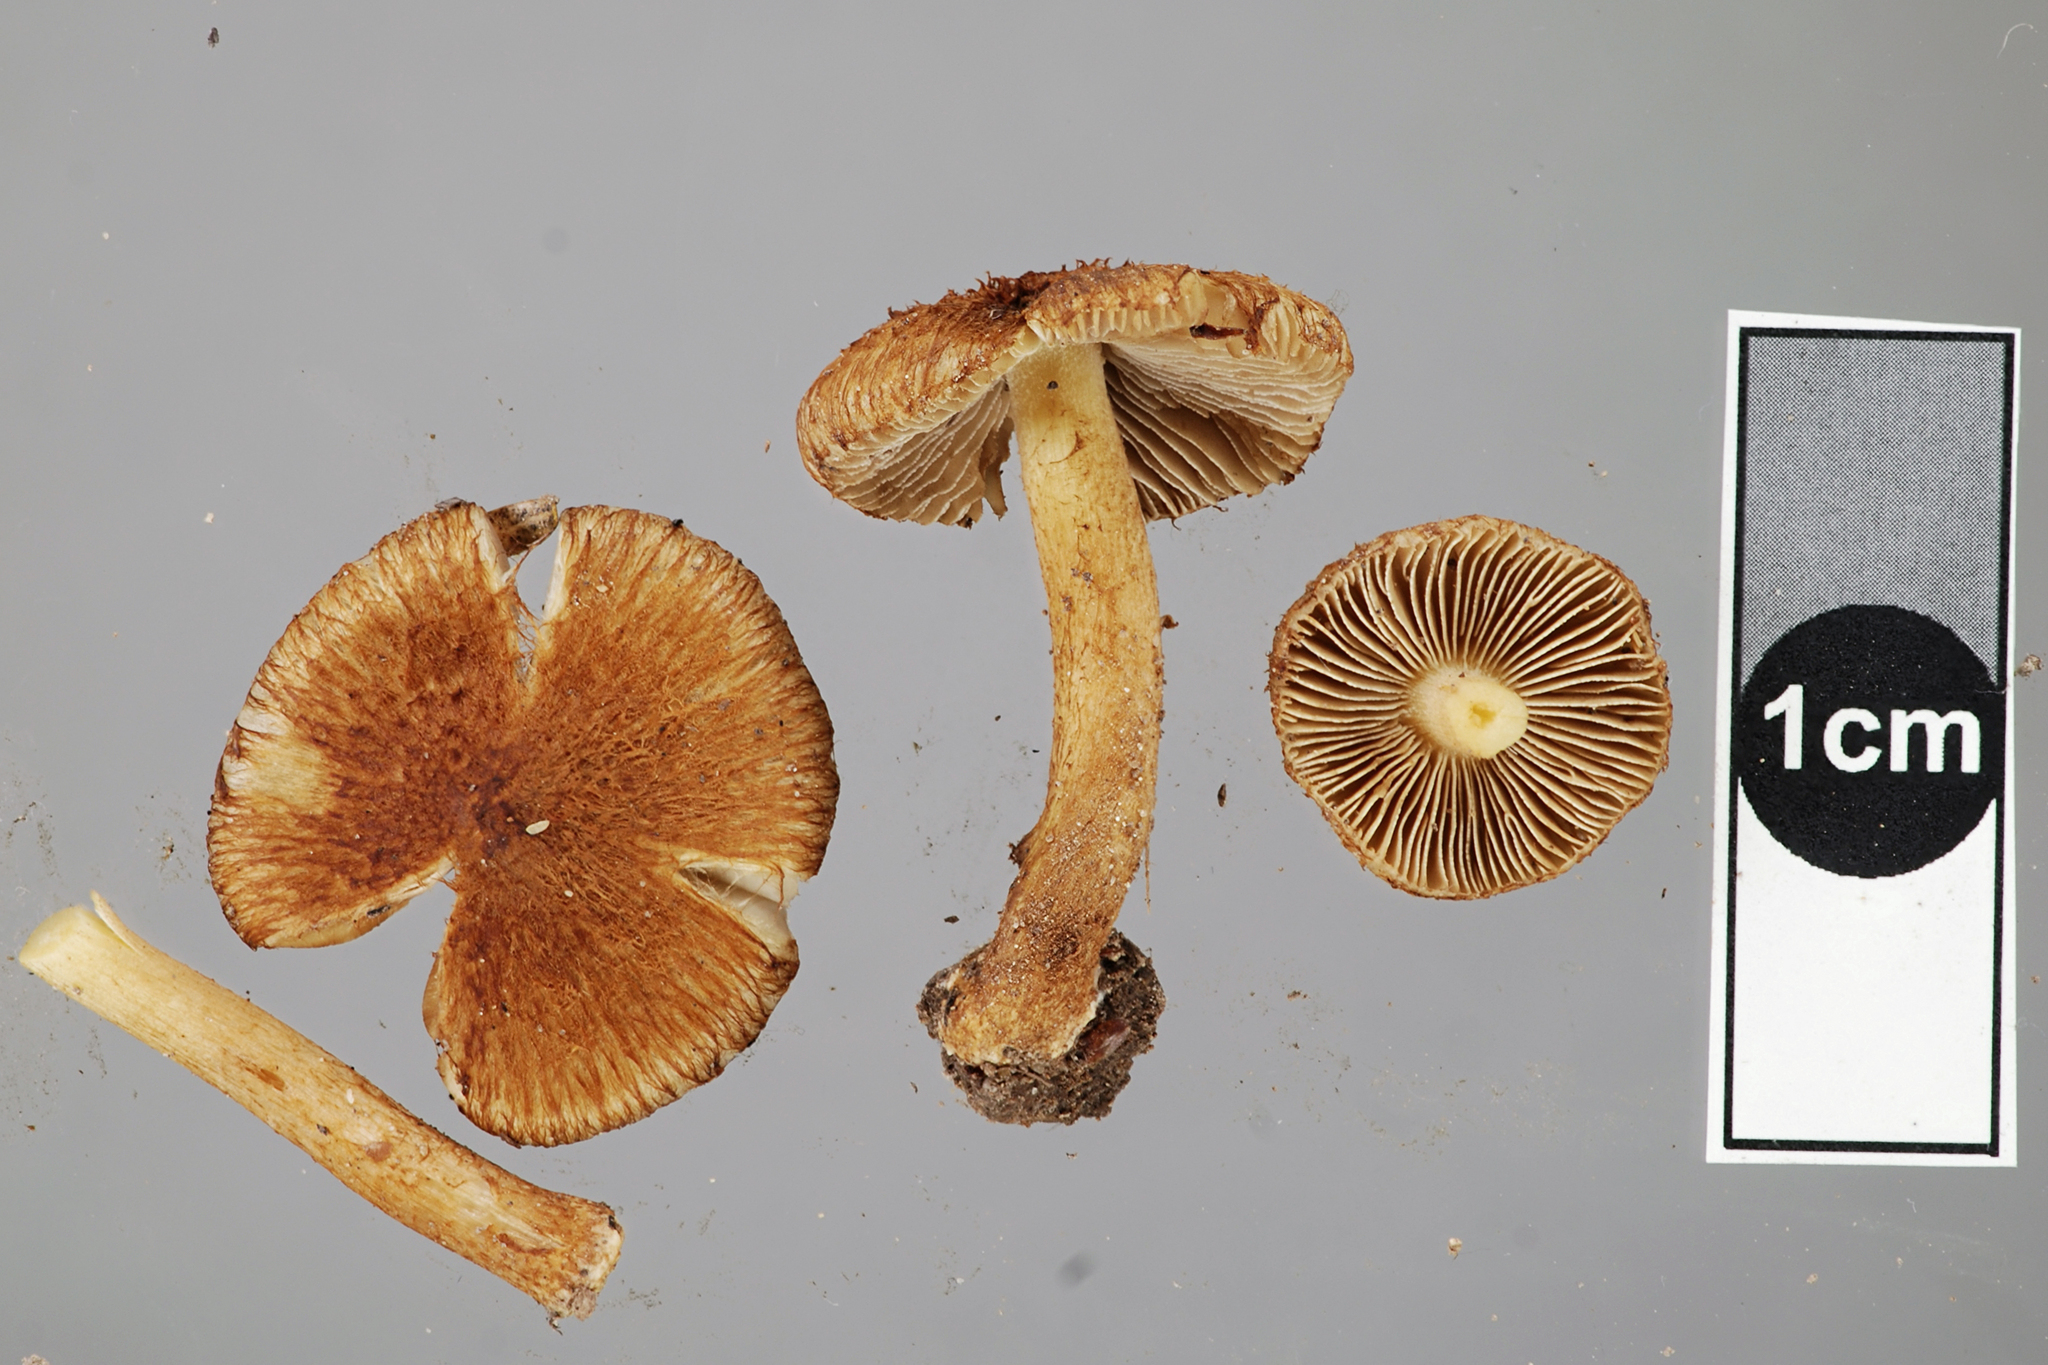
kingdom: Fungi
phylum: Basidiomycota
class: Agaricomycetes
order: Agaricales
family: Inocybaceae
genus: Inocybe
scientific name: Inocybe brunneolutea
